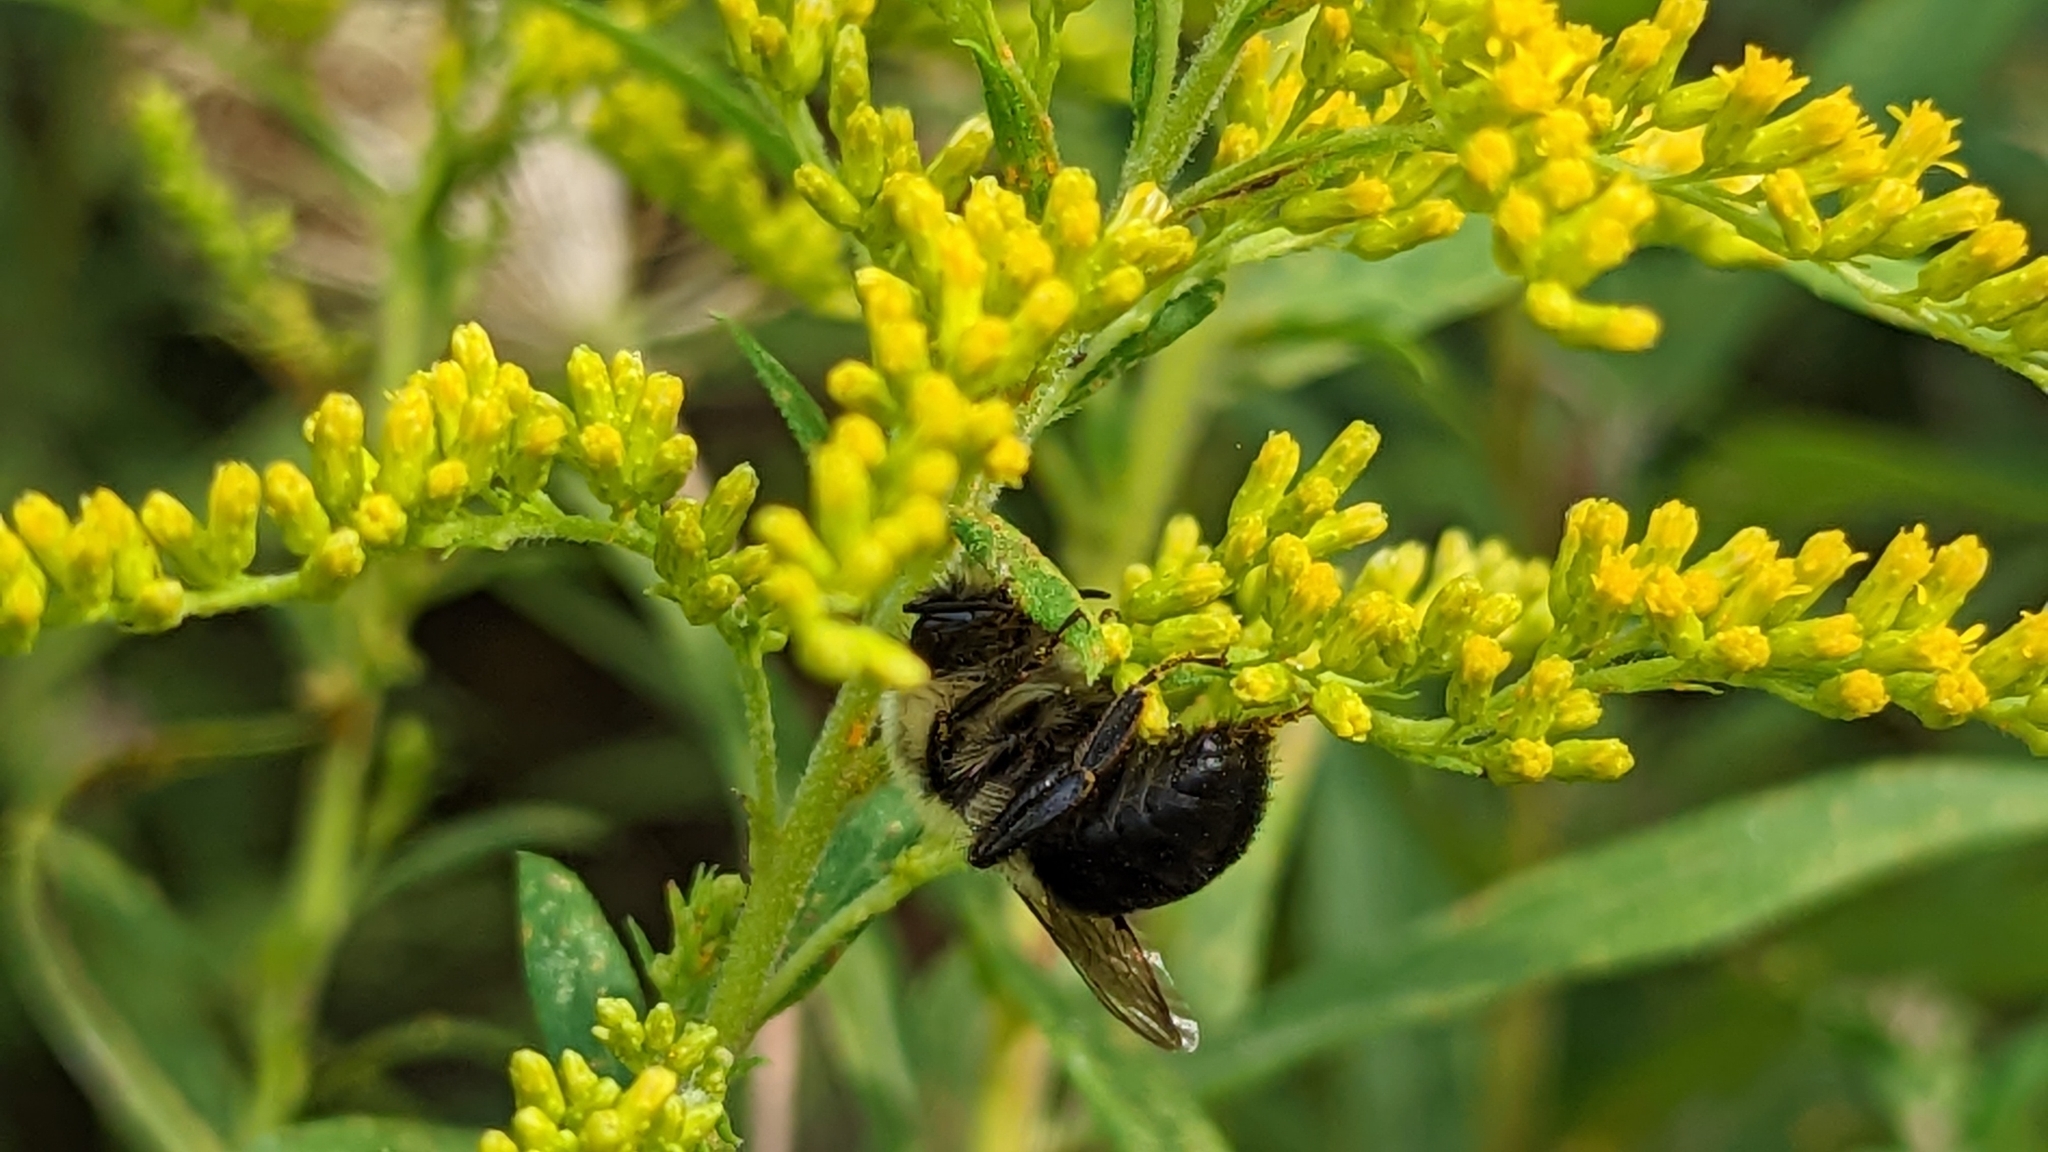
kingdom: Animalia
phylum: Arthropoda
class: Insecta
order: Hymenoptera
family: Apidae
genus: Bombus
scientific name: Bombus impatiens
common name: Common eastern bumble bee
